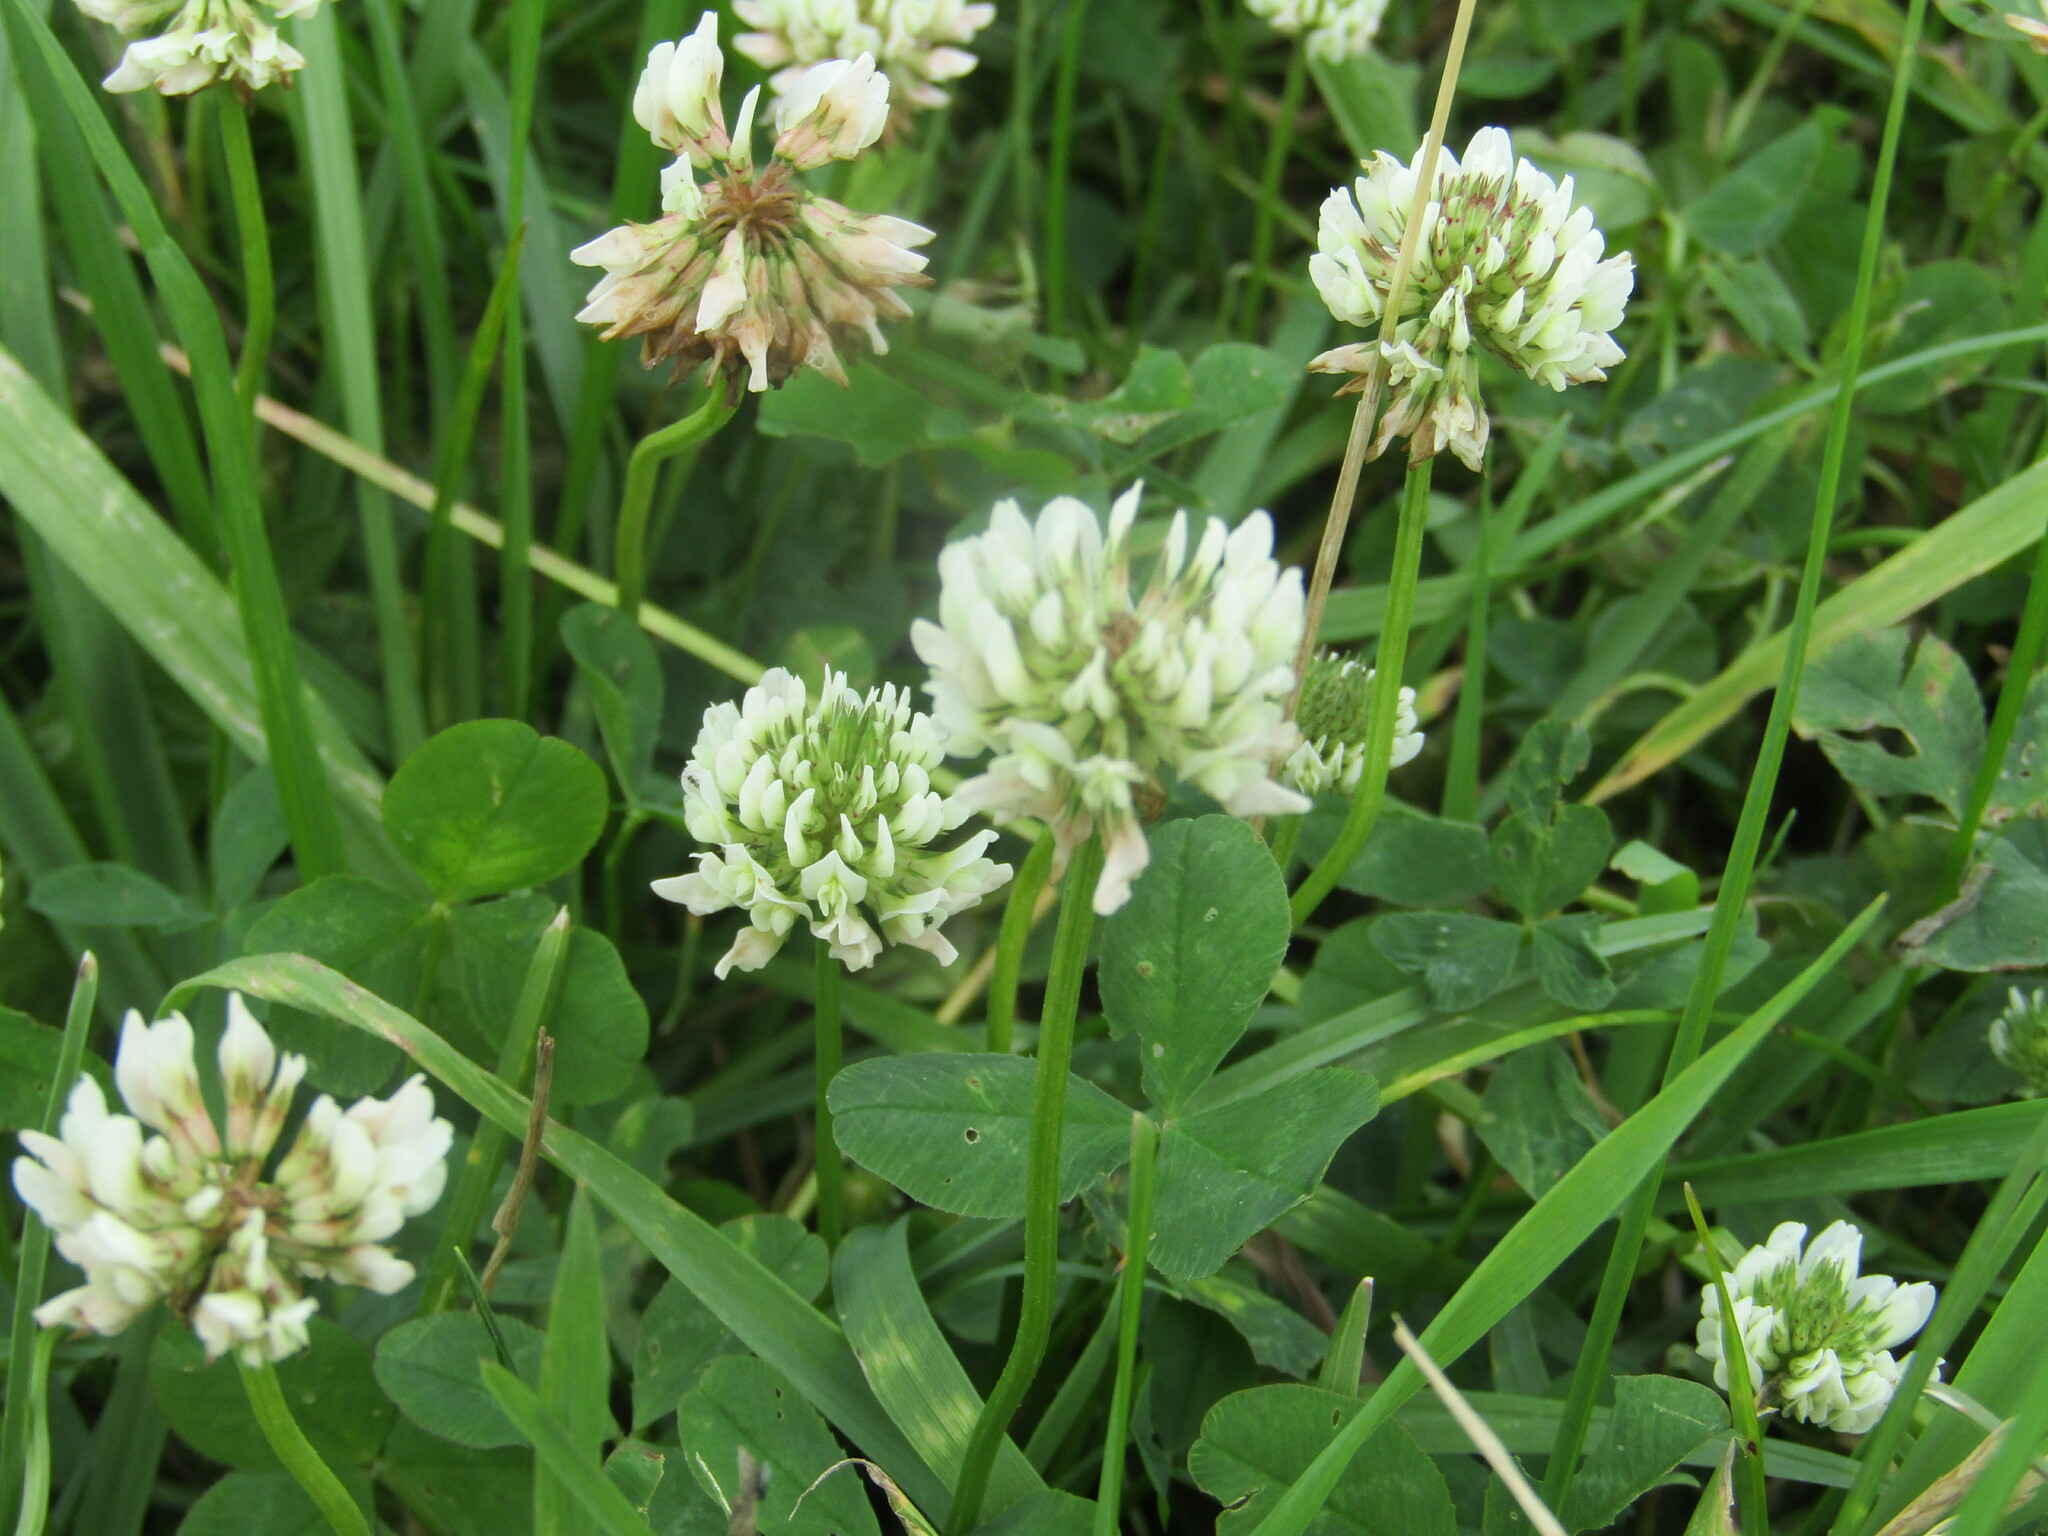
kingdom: Plantae
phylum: Tracheophyta
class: Magnoliopsida
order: Fabales
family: Fabaceae
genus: Trifolium
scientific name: Trifolium repens
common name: White clover
